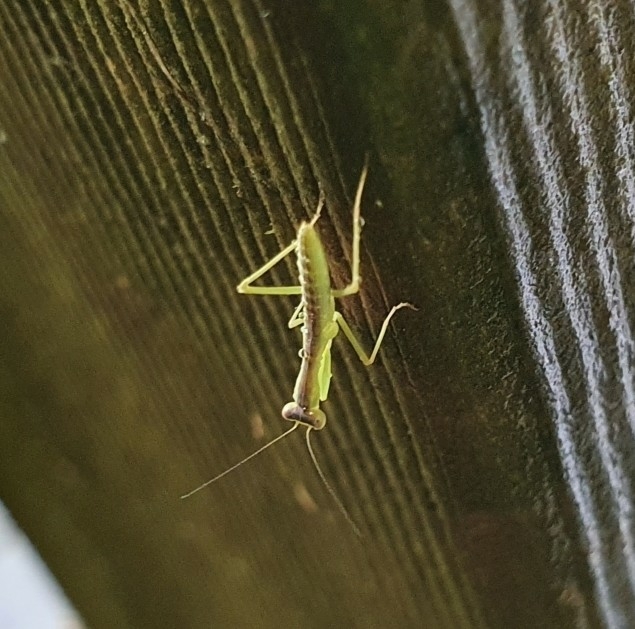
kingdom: Animalia
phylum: Arthropoda
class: Insecta
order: Mantodea
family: Mantidae
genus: Orthodera
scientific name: Orthodera ministralis
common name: Mantis
